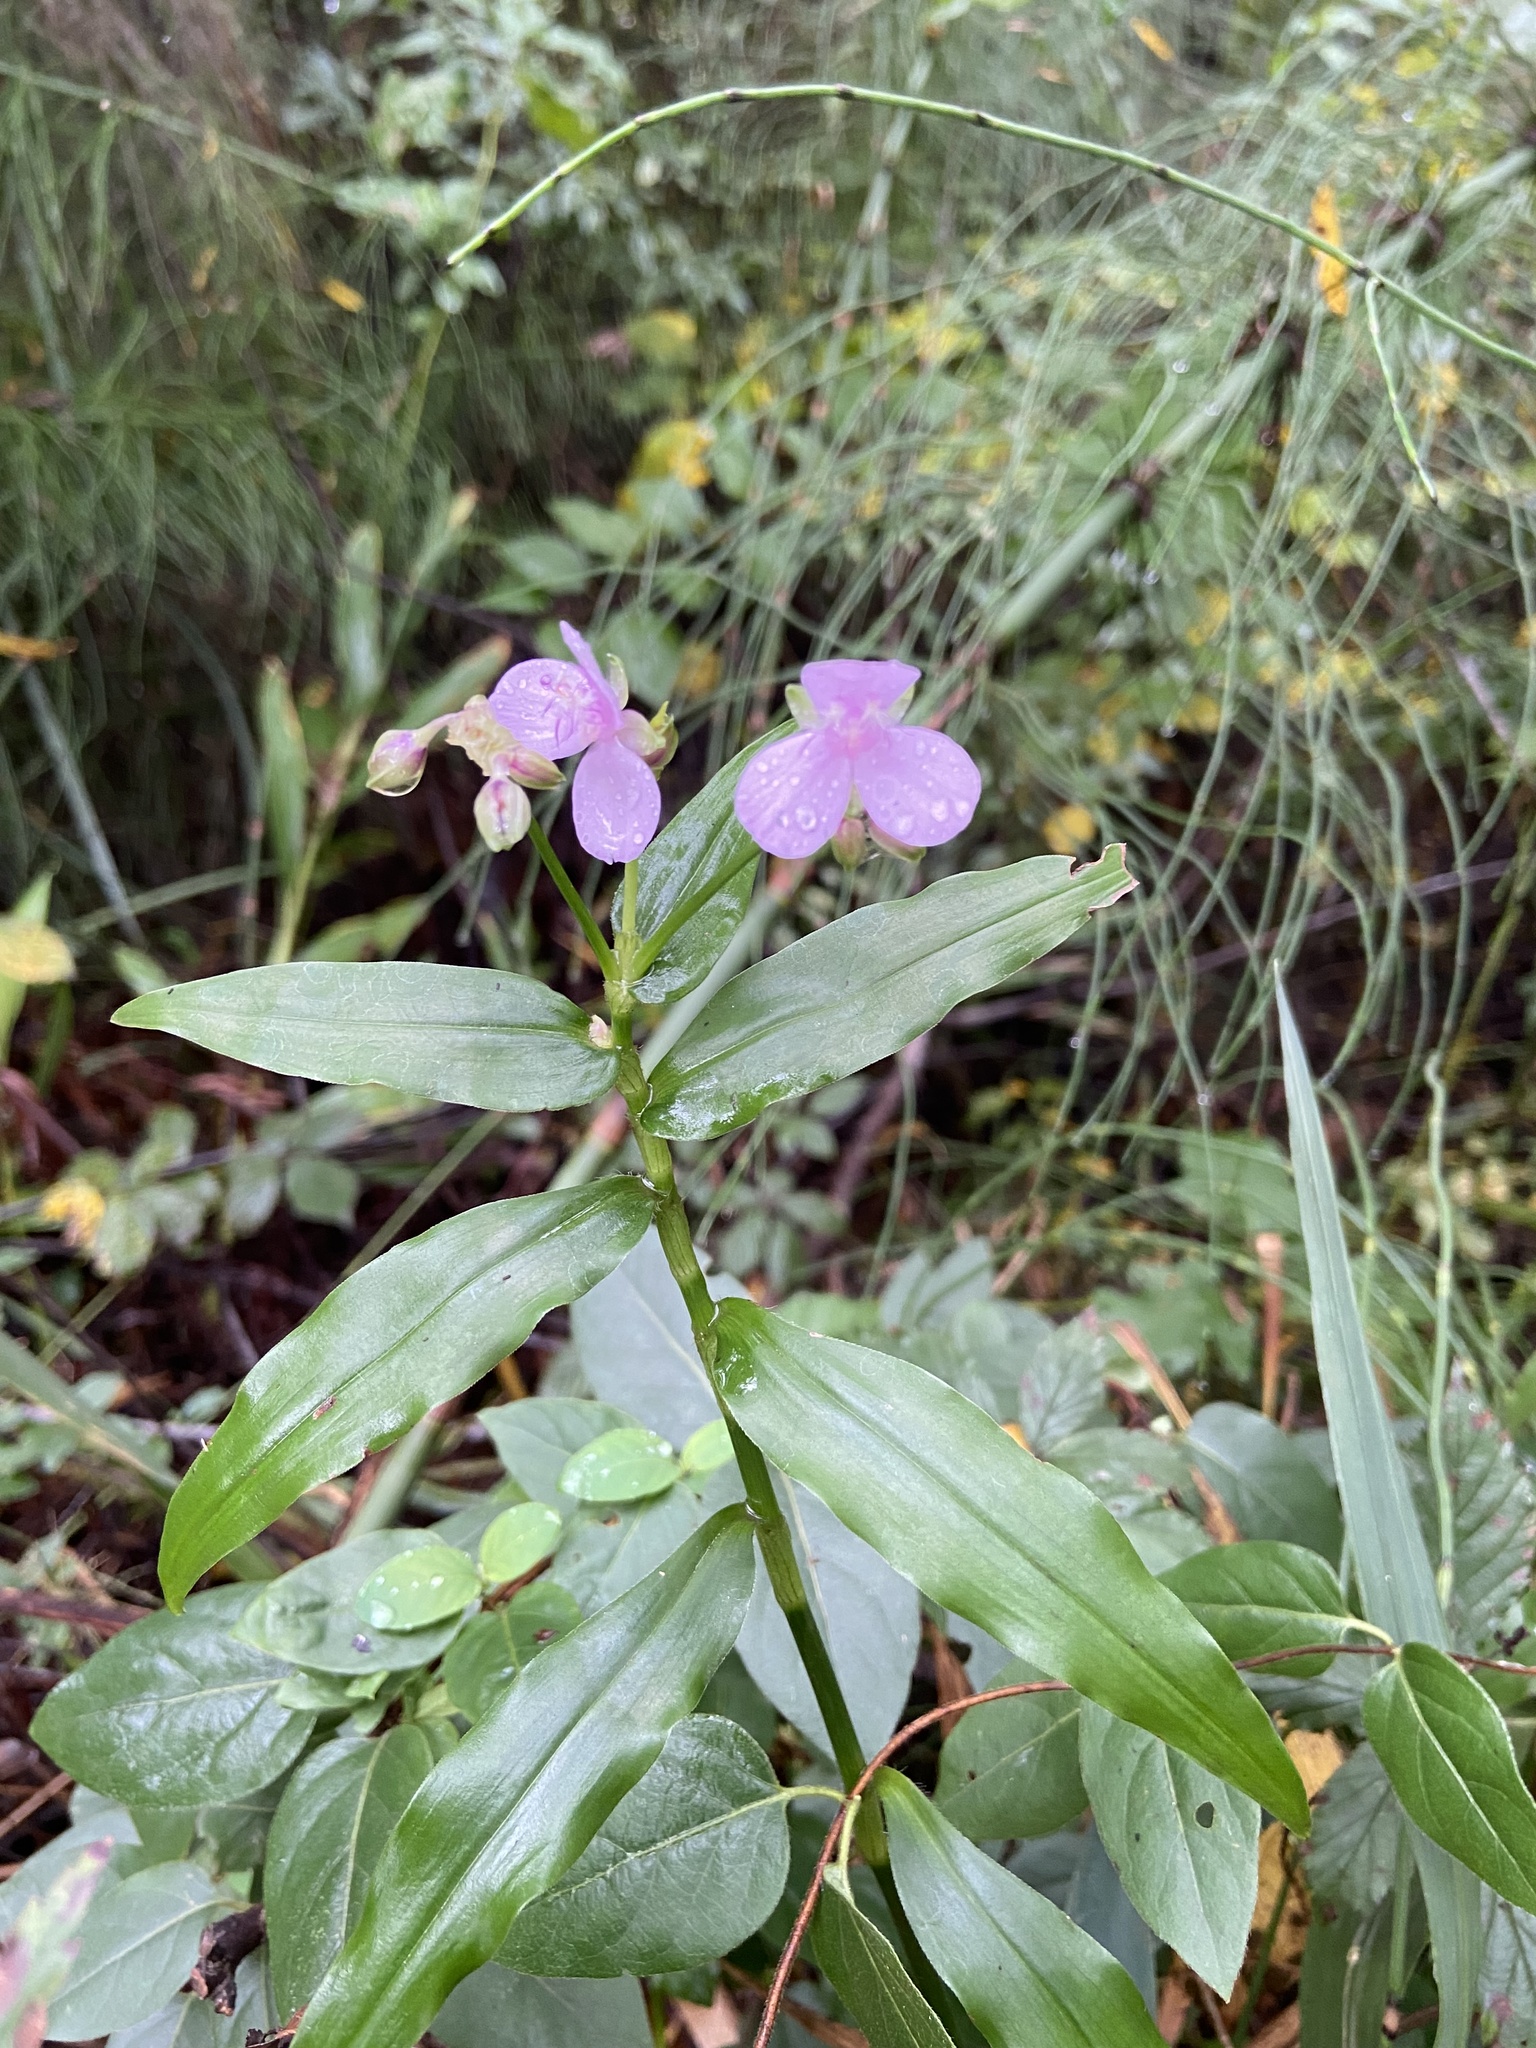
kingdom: Plantae
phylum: Tracheophyta
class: Liliopsida
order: Commelinales
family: Commelinaceae
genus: Callisia
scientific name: Callisia diuretica
